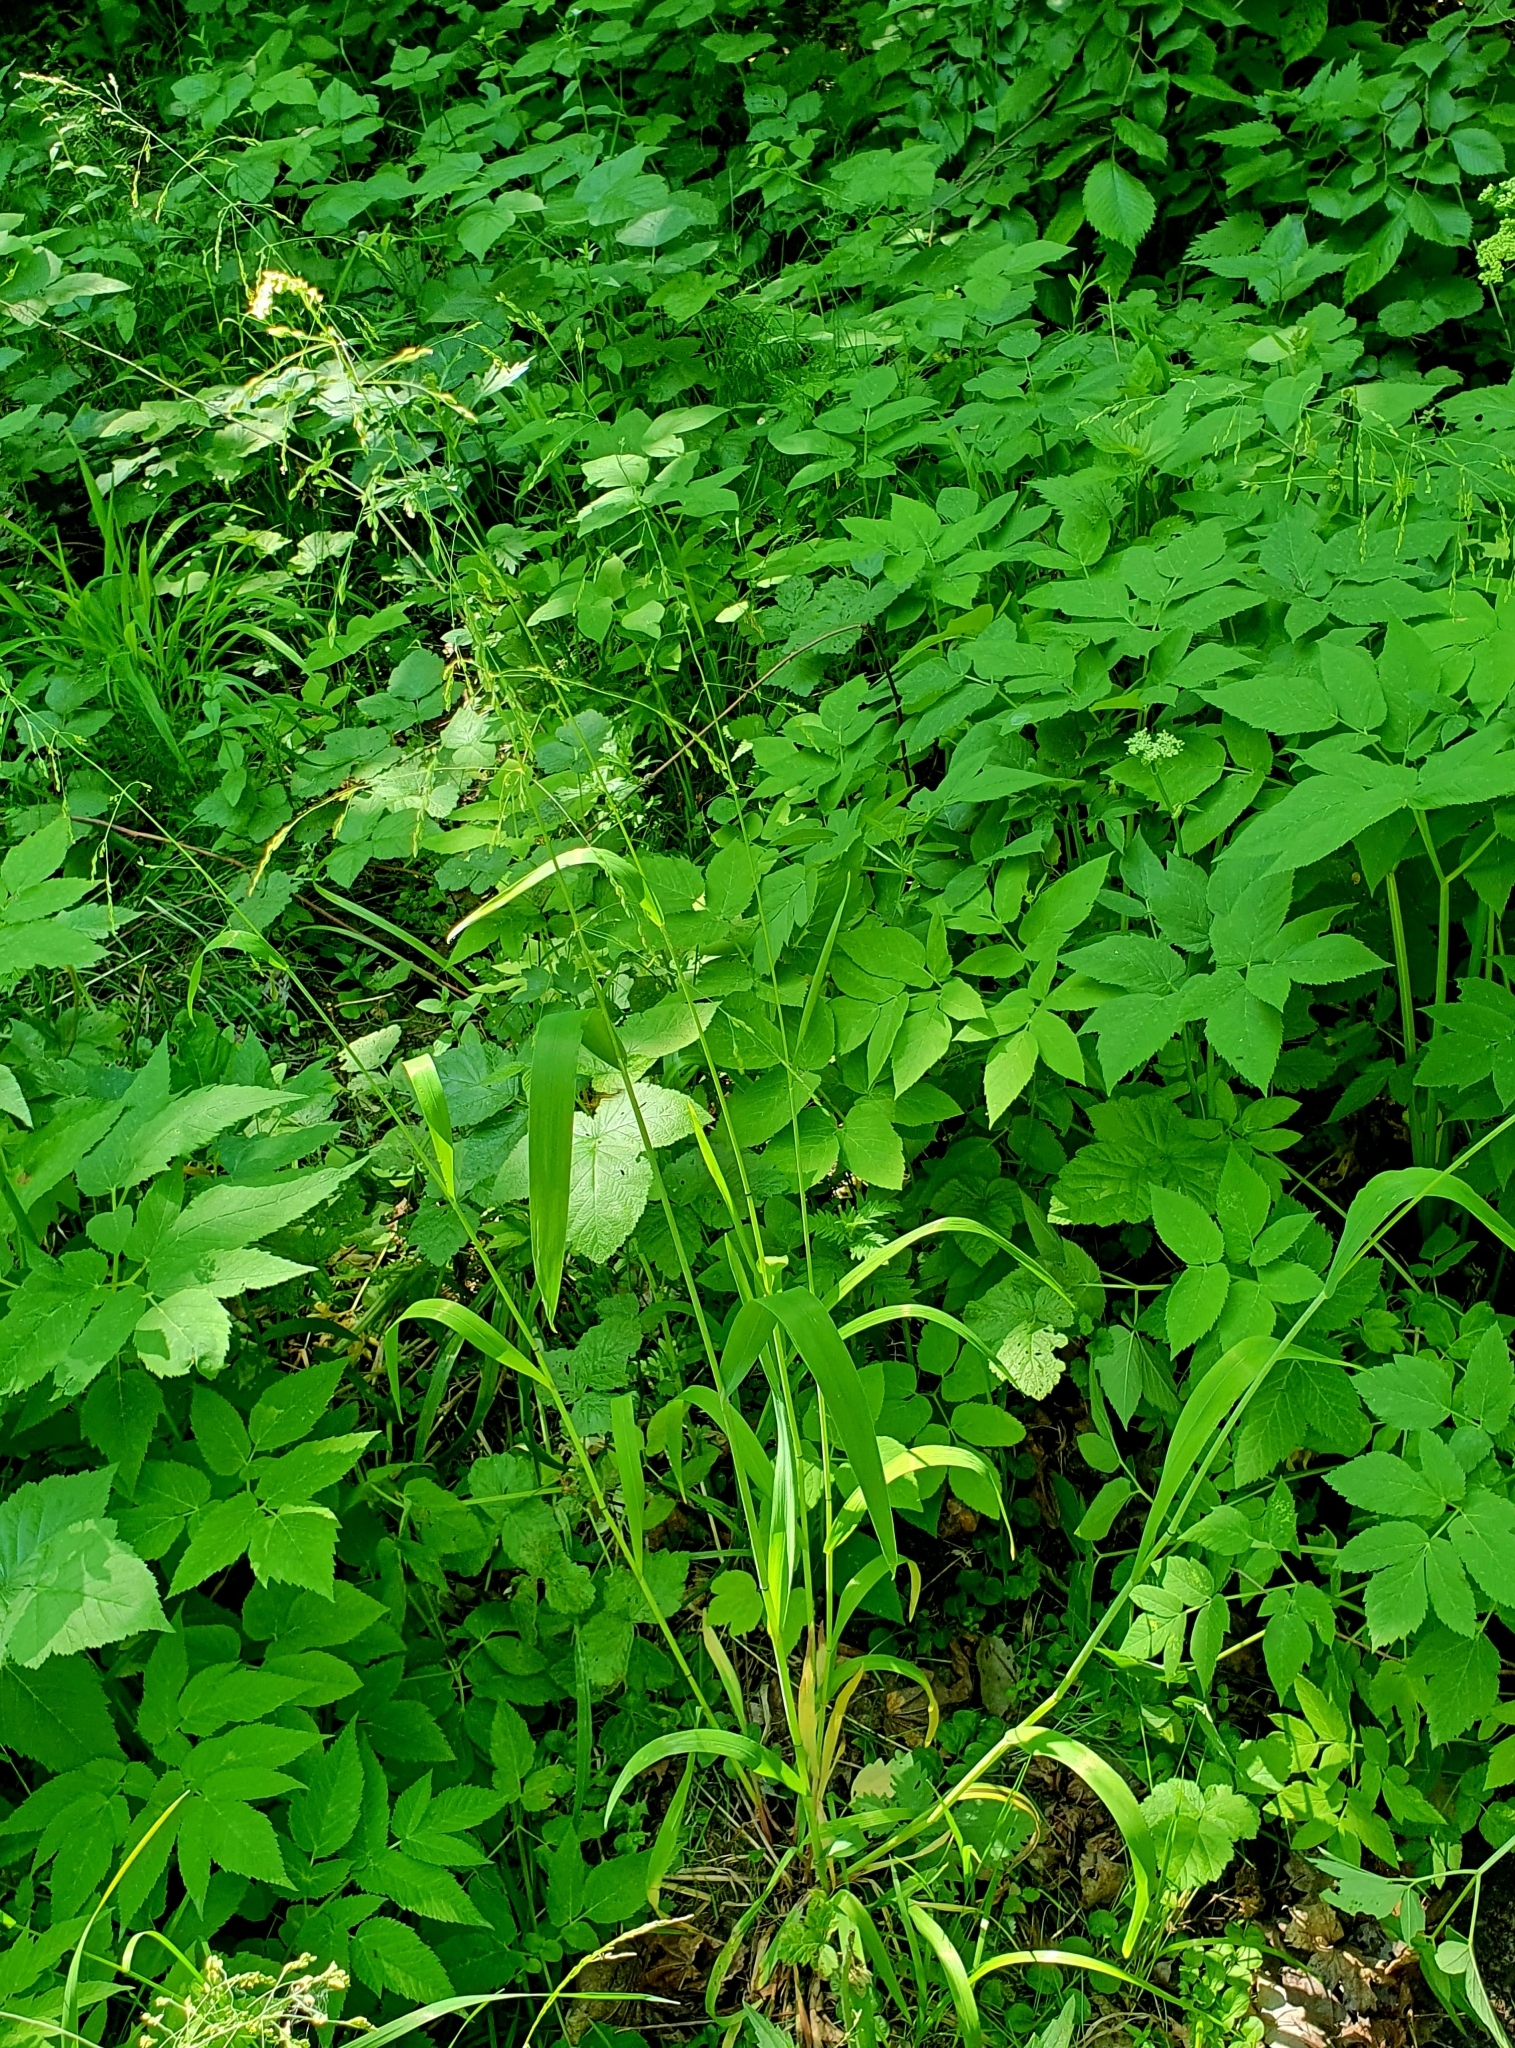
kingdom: Plantae
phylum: Tracheophyta
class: Liliopsida
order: Poales
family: Poaceae
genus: Milium
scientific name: Milium effusum
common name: Wood millet
